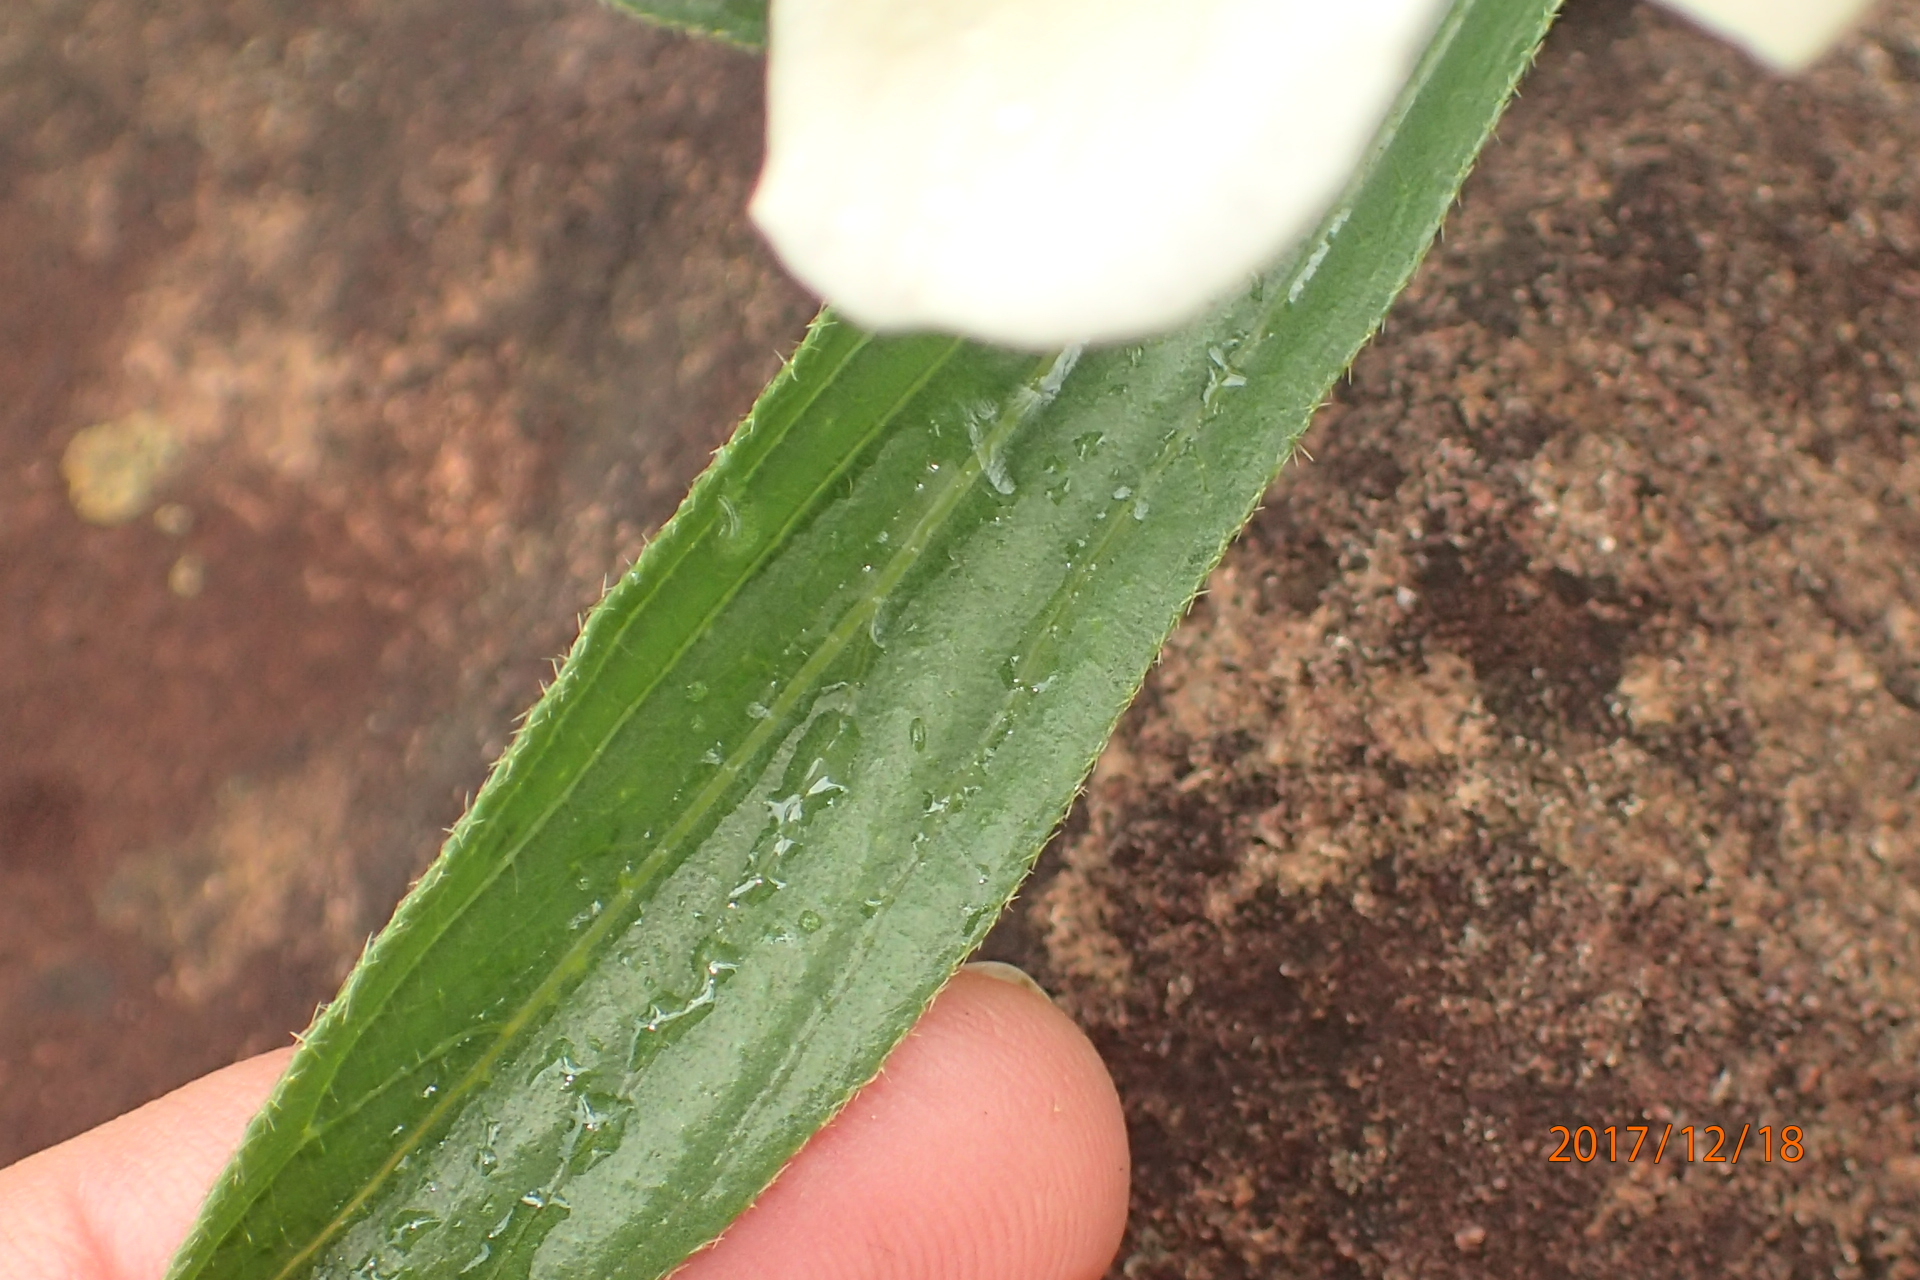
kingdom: Plantae
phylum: Tracheophyta
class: Magnoliopsida
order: Malvales
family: Malvaceae
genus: Hibiscus
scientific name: Hibiscus aethiopicus
